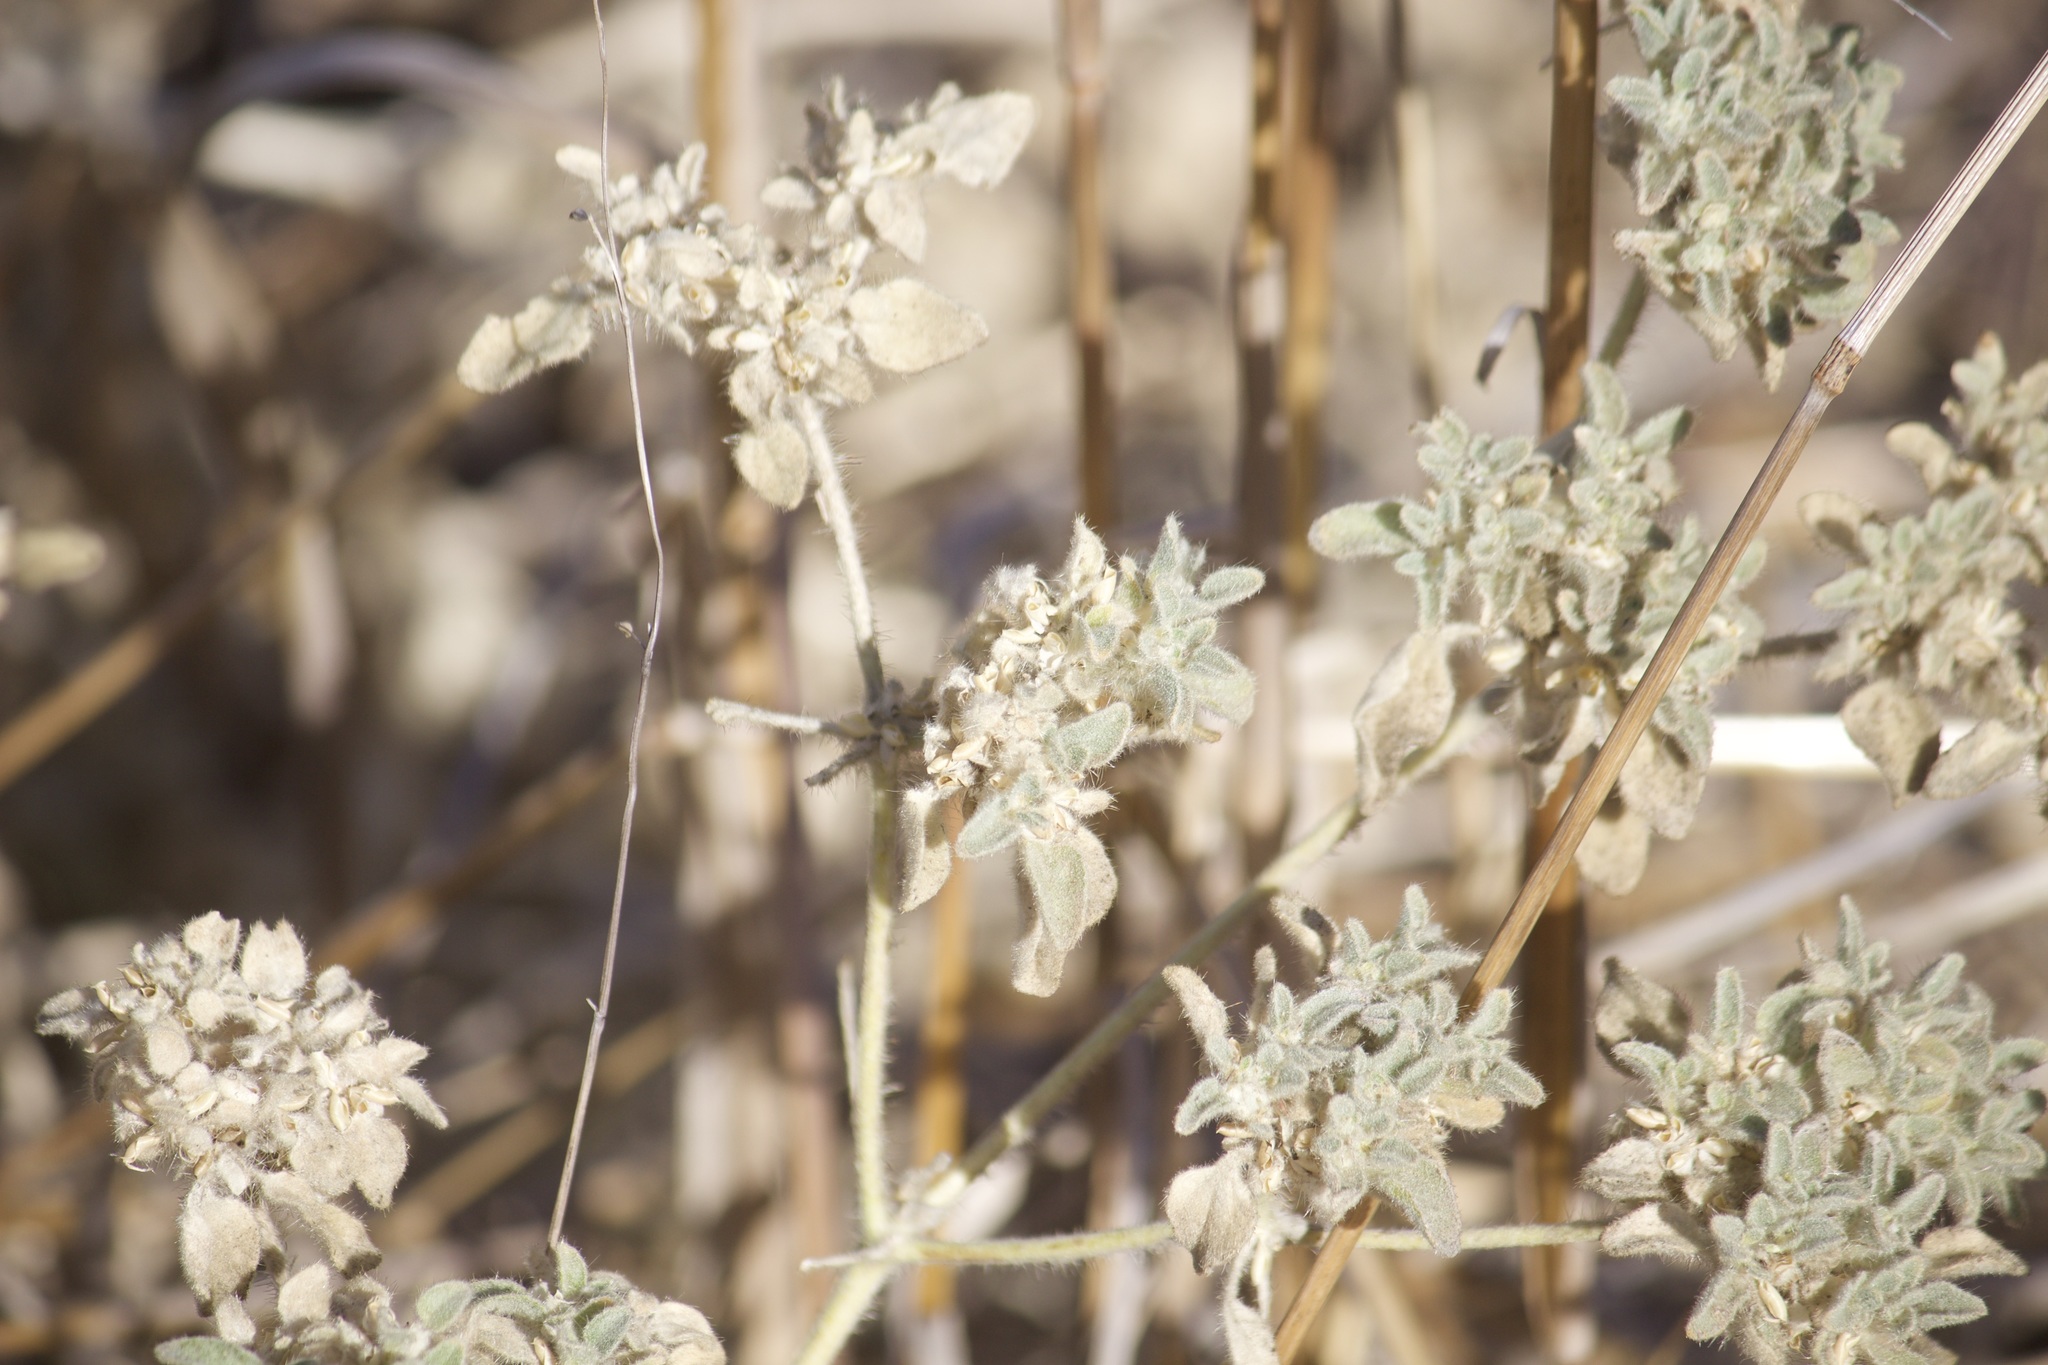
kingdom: Plantae
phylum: Tracheophyta
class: Magnoliopsida
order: Malpighiales
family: Euphorbiaceae
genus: Croton
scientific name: Croton setiger
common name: Dove weed
